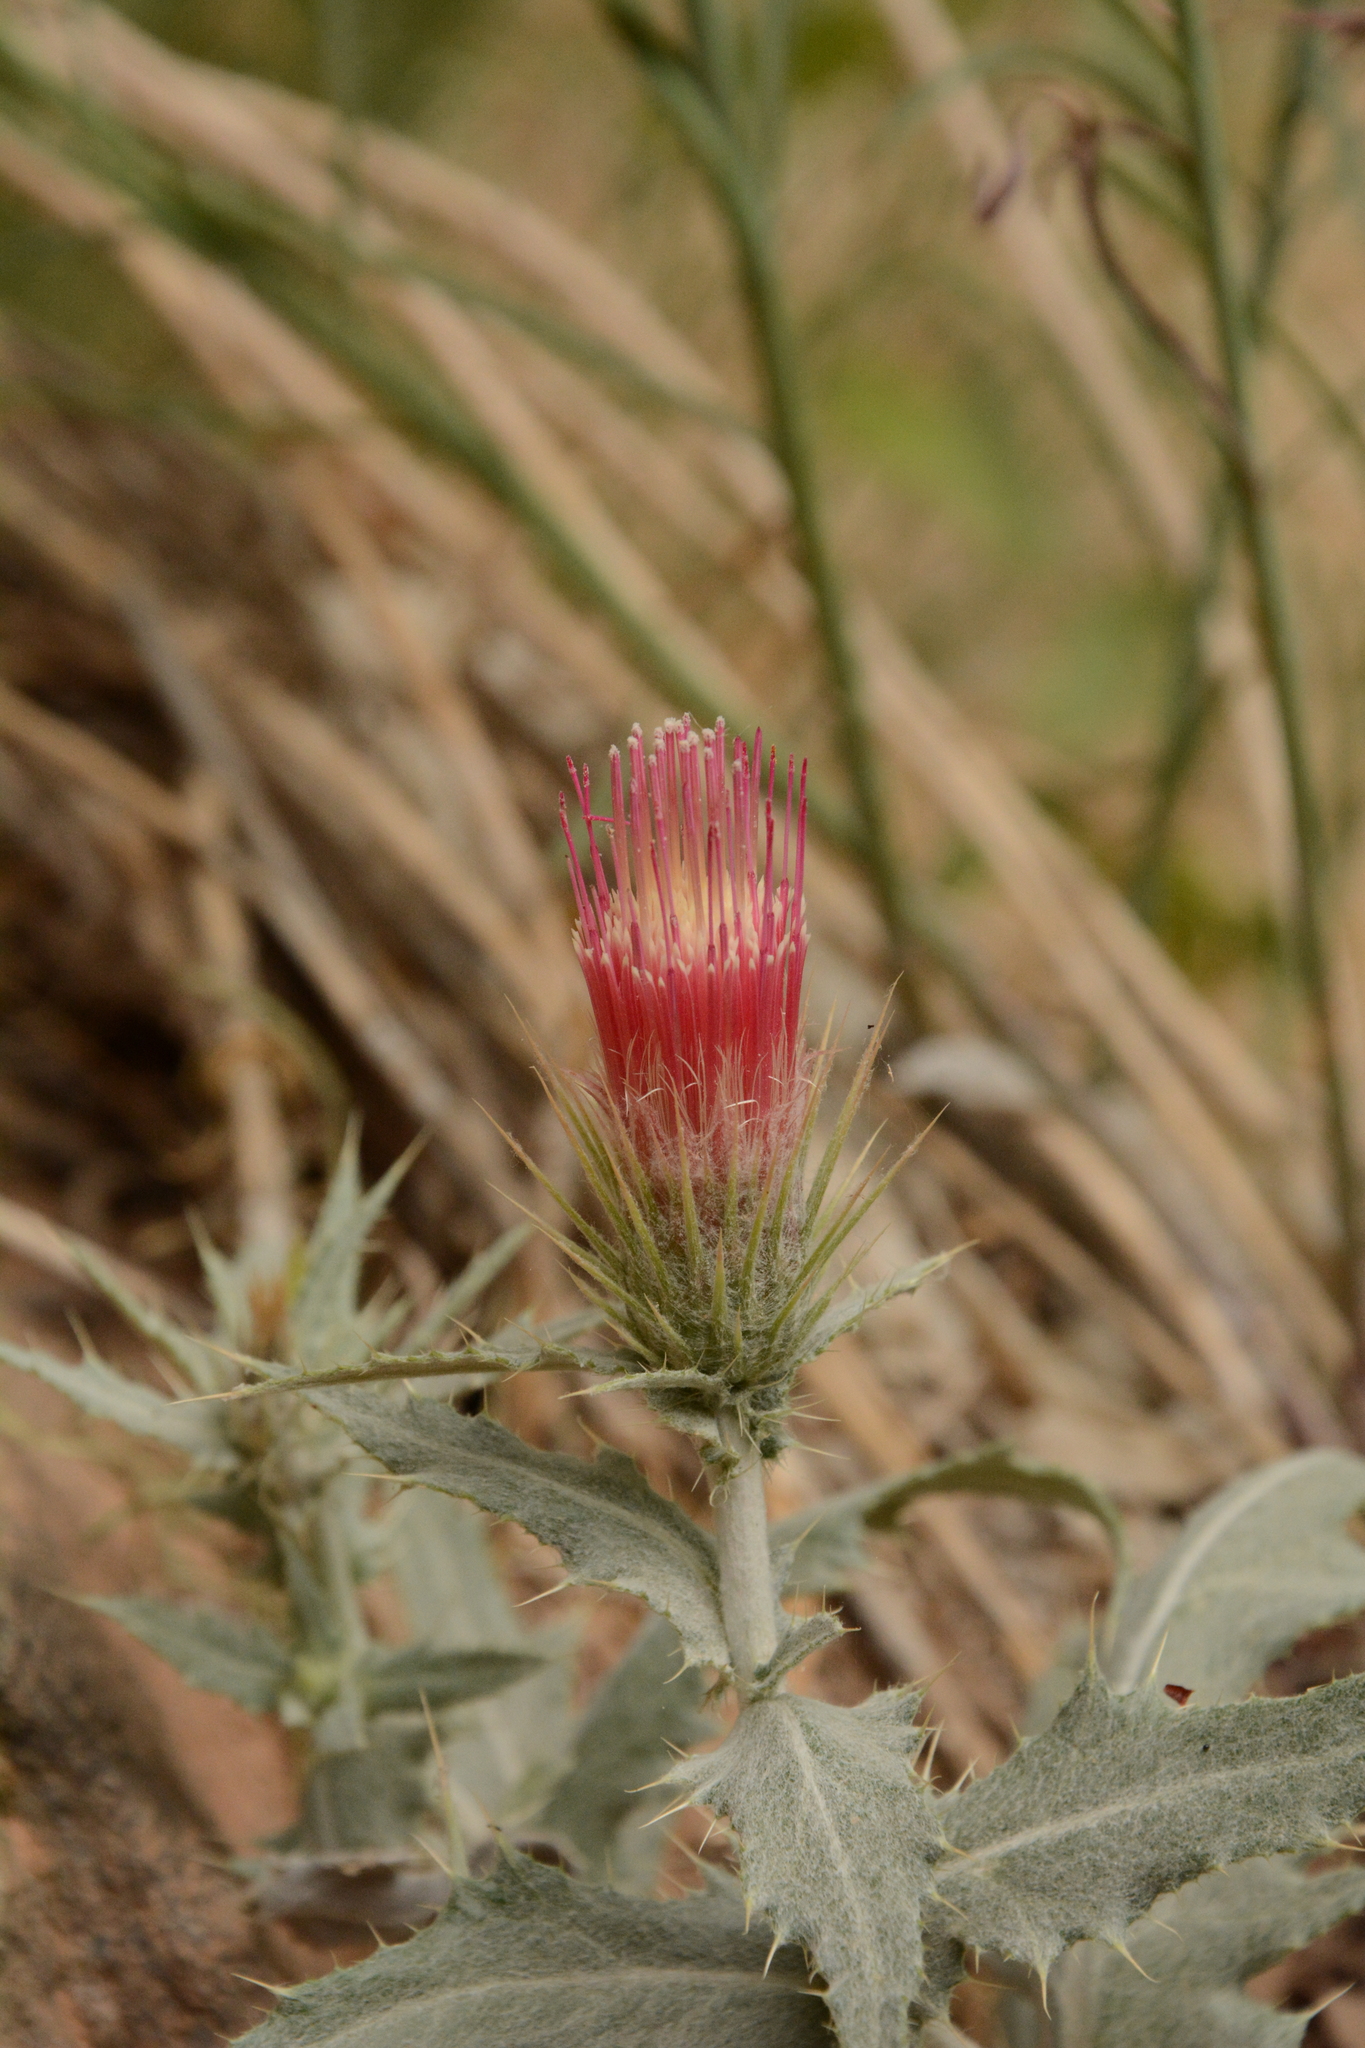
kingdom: Plantae
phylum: Tracheophyta
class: Magnoliopsida
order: Asterales
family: Asteraceae
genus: Cirsium
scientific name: Cirsium arizonicum
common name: Arizona thistle
